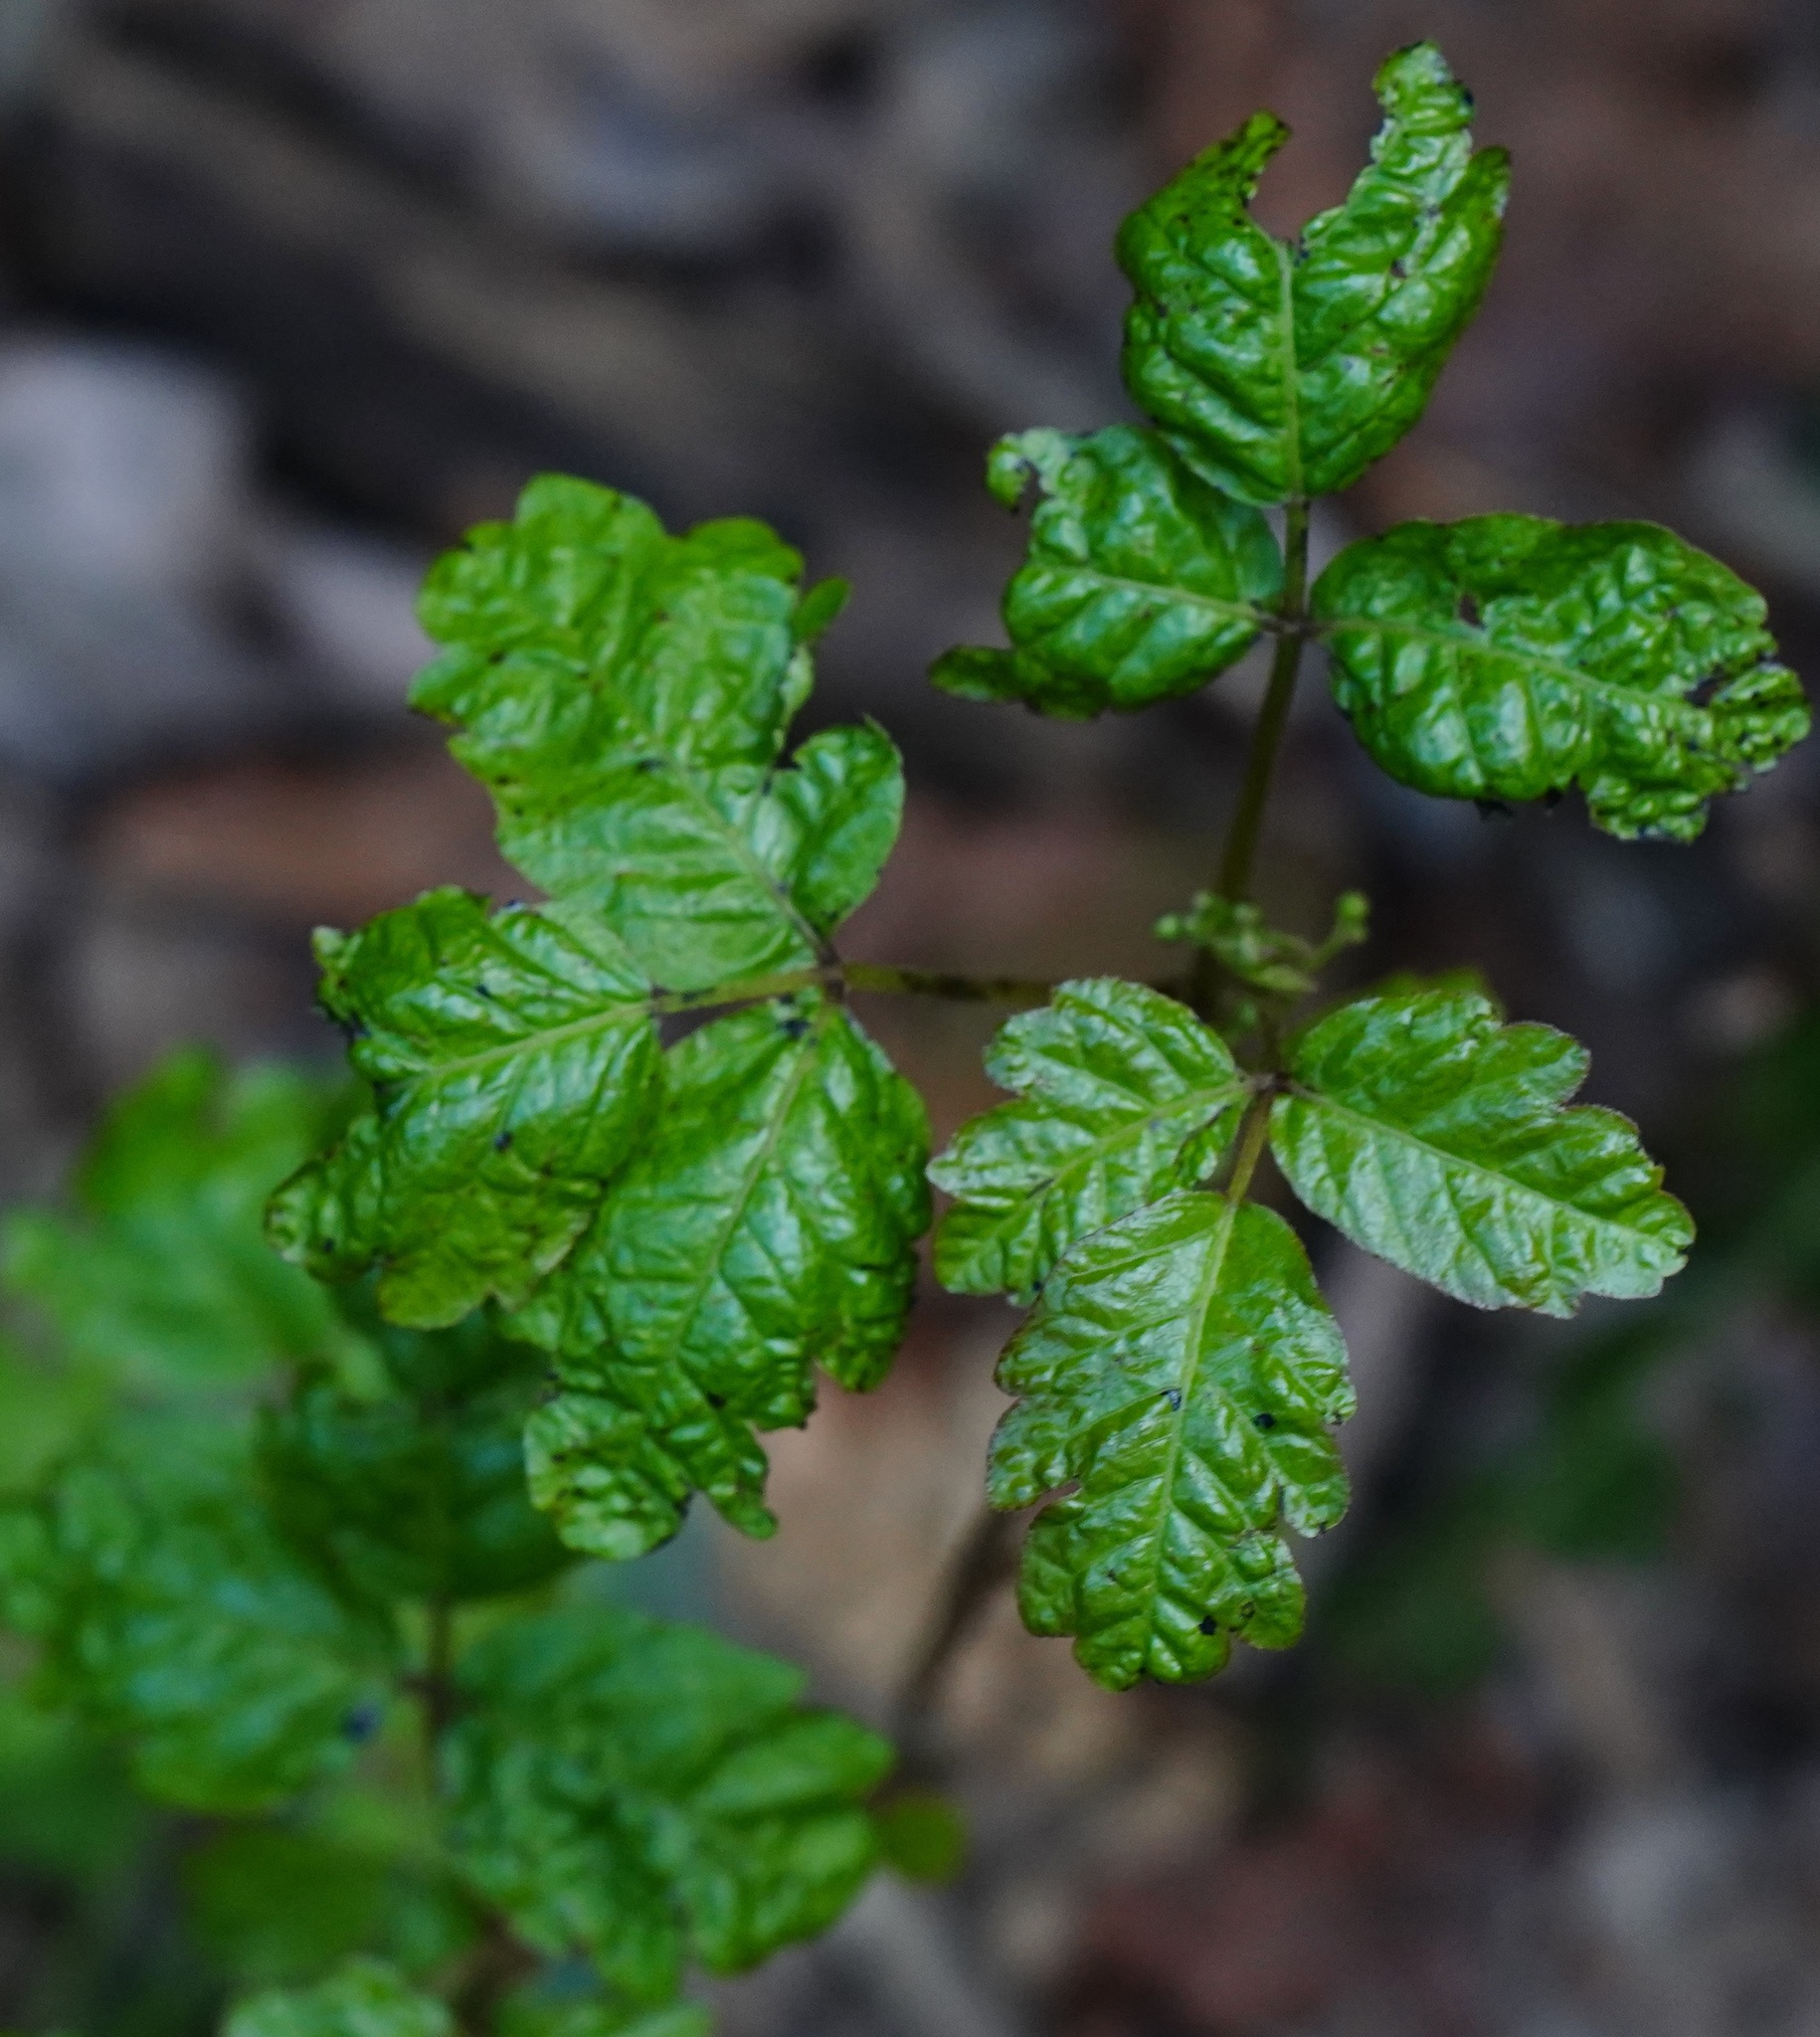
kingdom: Plantae
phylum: Tracheophyta
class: Magnoliopsida
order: Sapindales
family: Anacardiaceae
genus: Toxicodendron
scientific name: Toxicodendron diversilobum
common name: Pacific poison-oak
